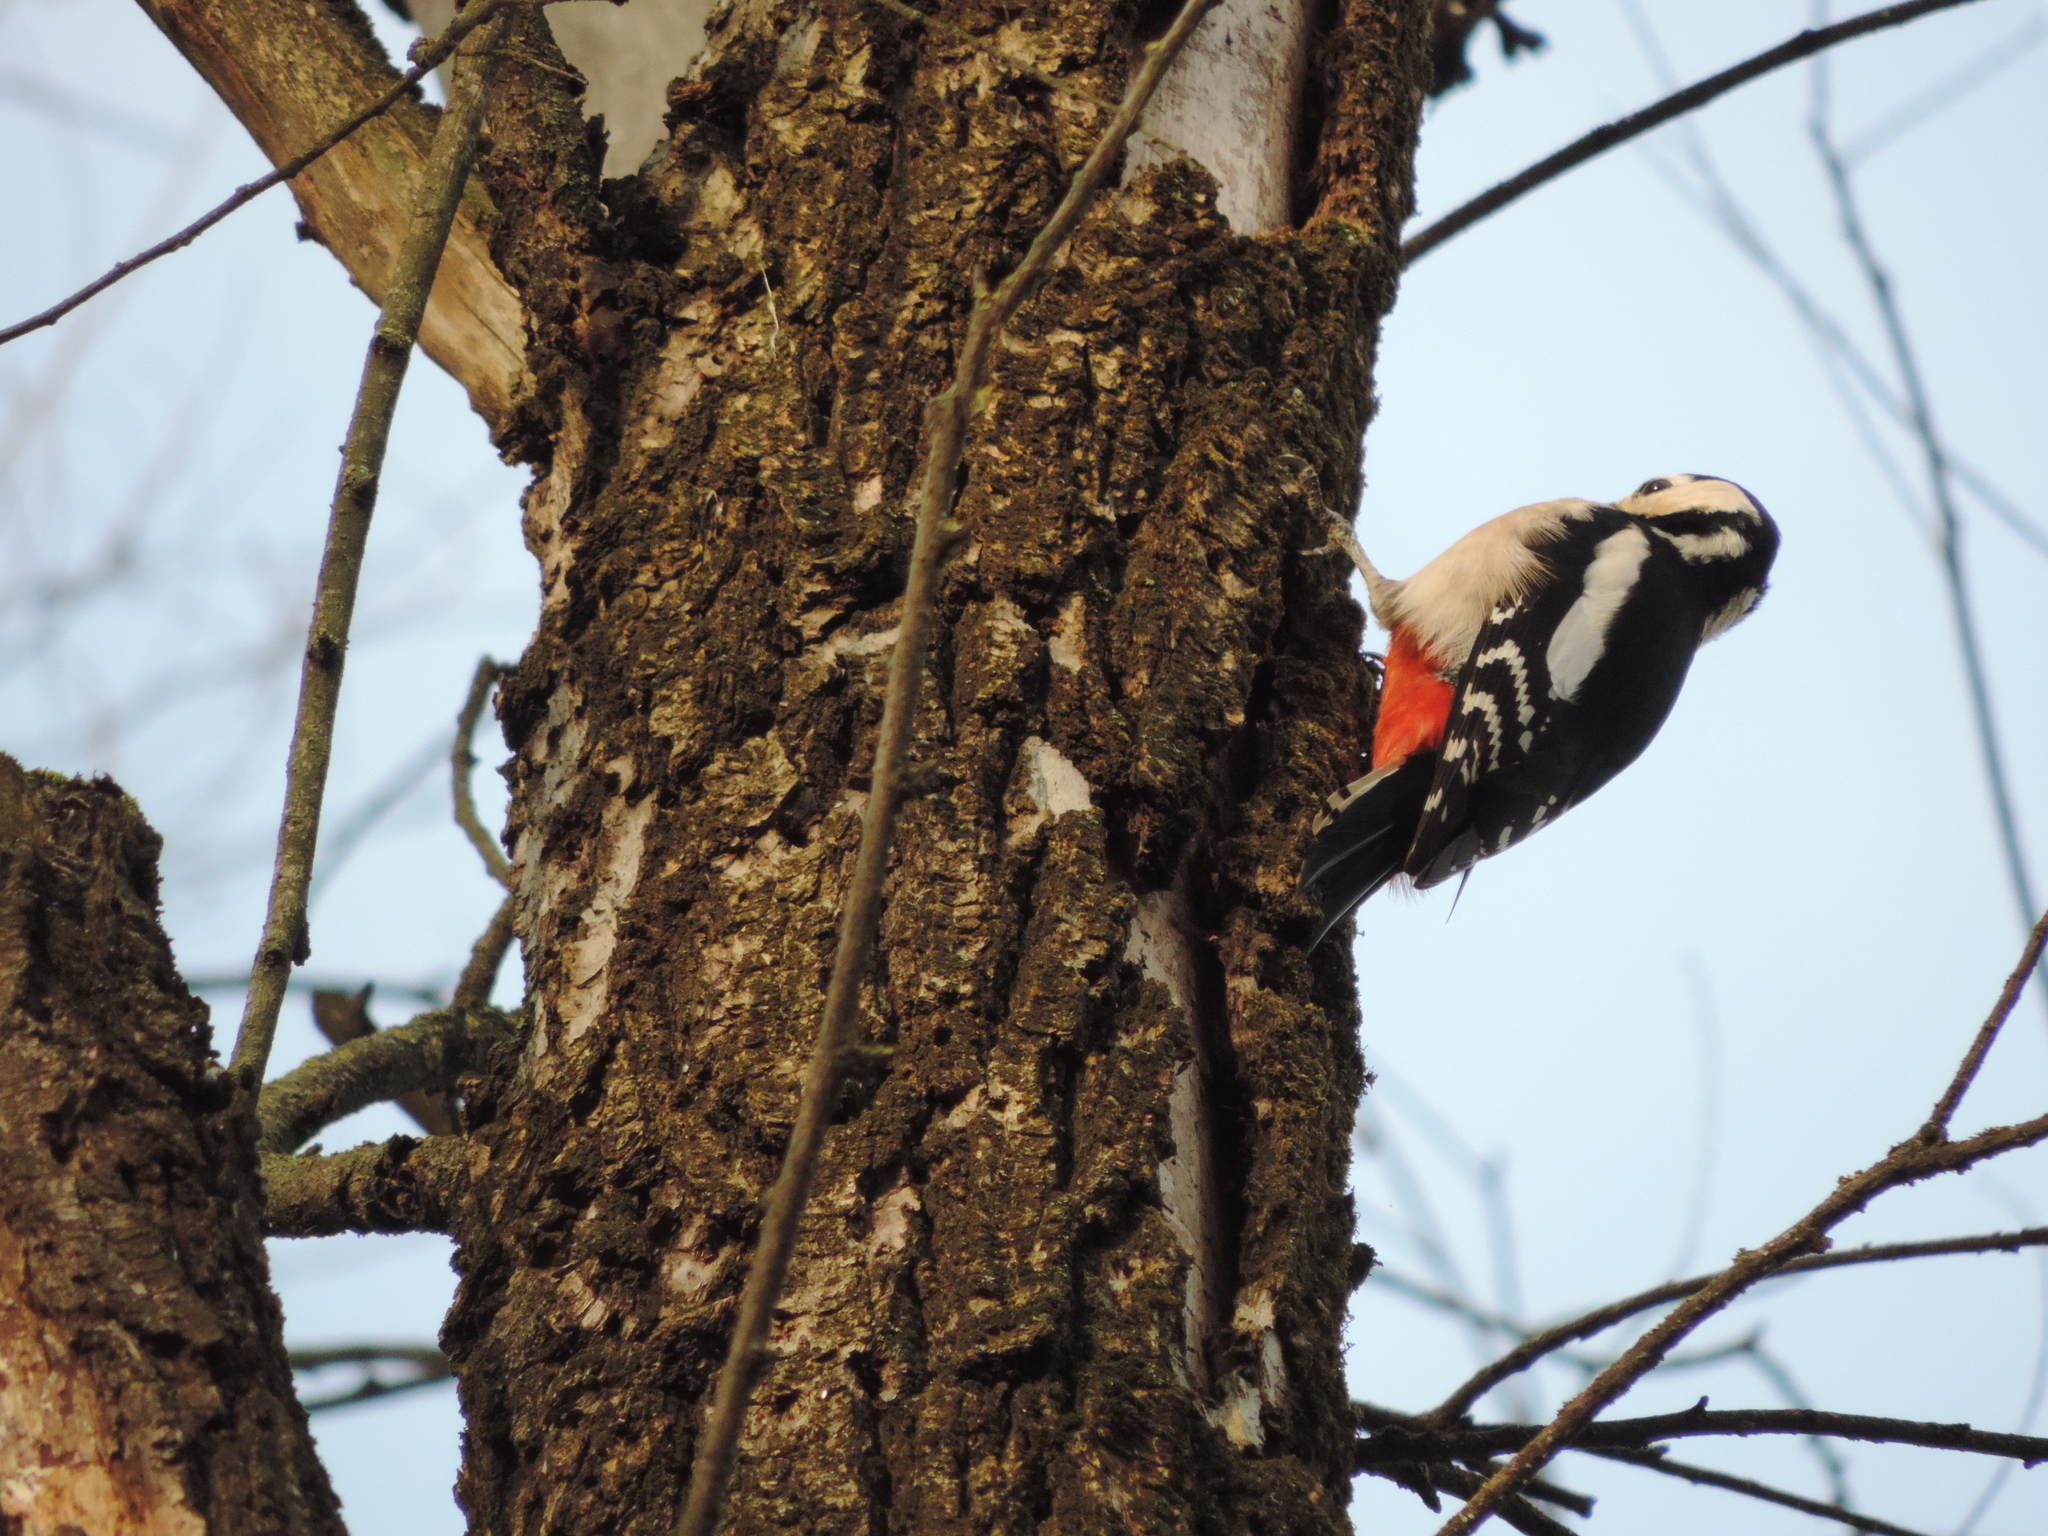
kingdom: Animalia
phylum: Chordata
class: Aves
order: Piciformes
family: Picidae
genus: Dendrocopos
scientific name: Dendrocopos major
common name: Great spotted woodpecker
